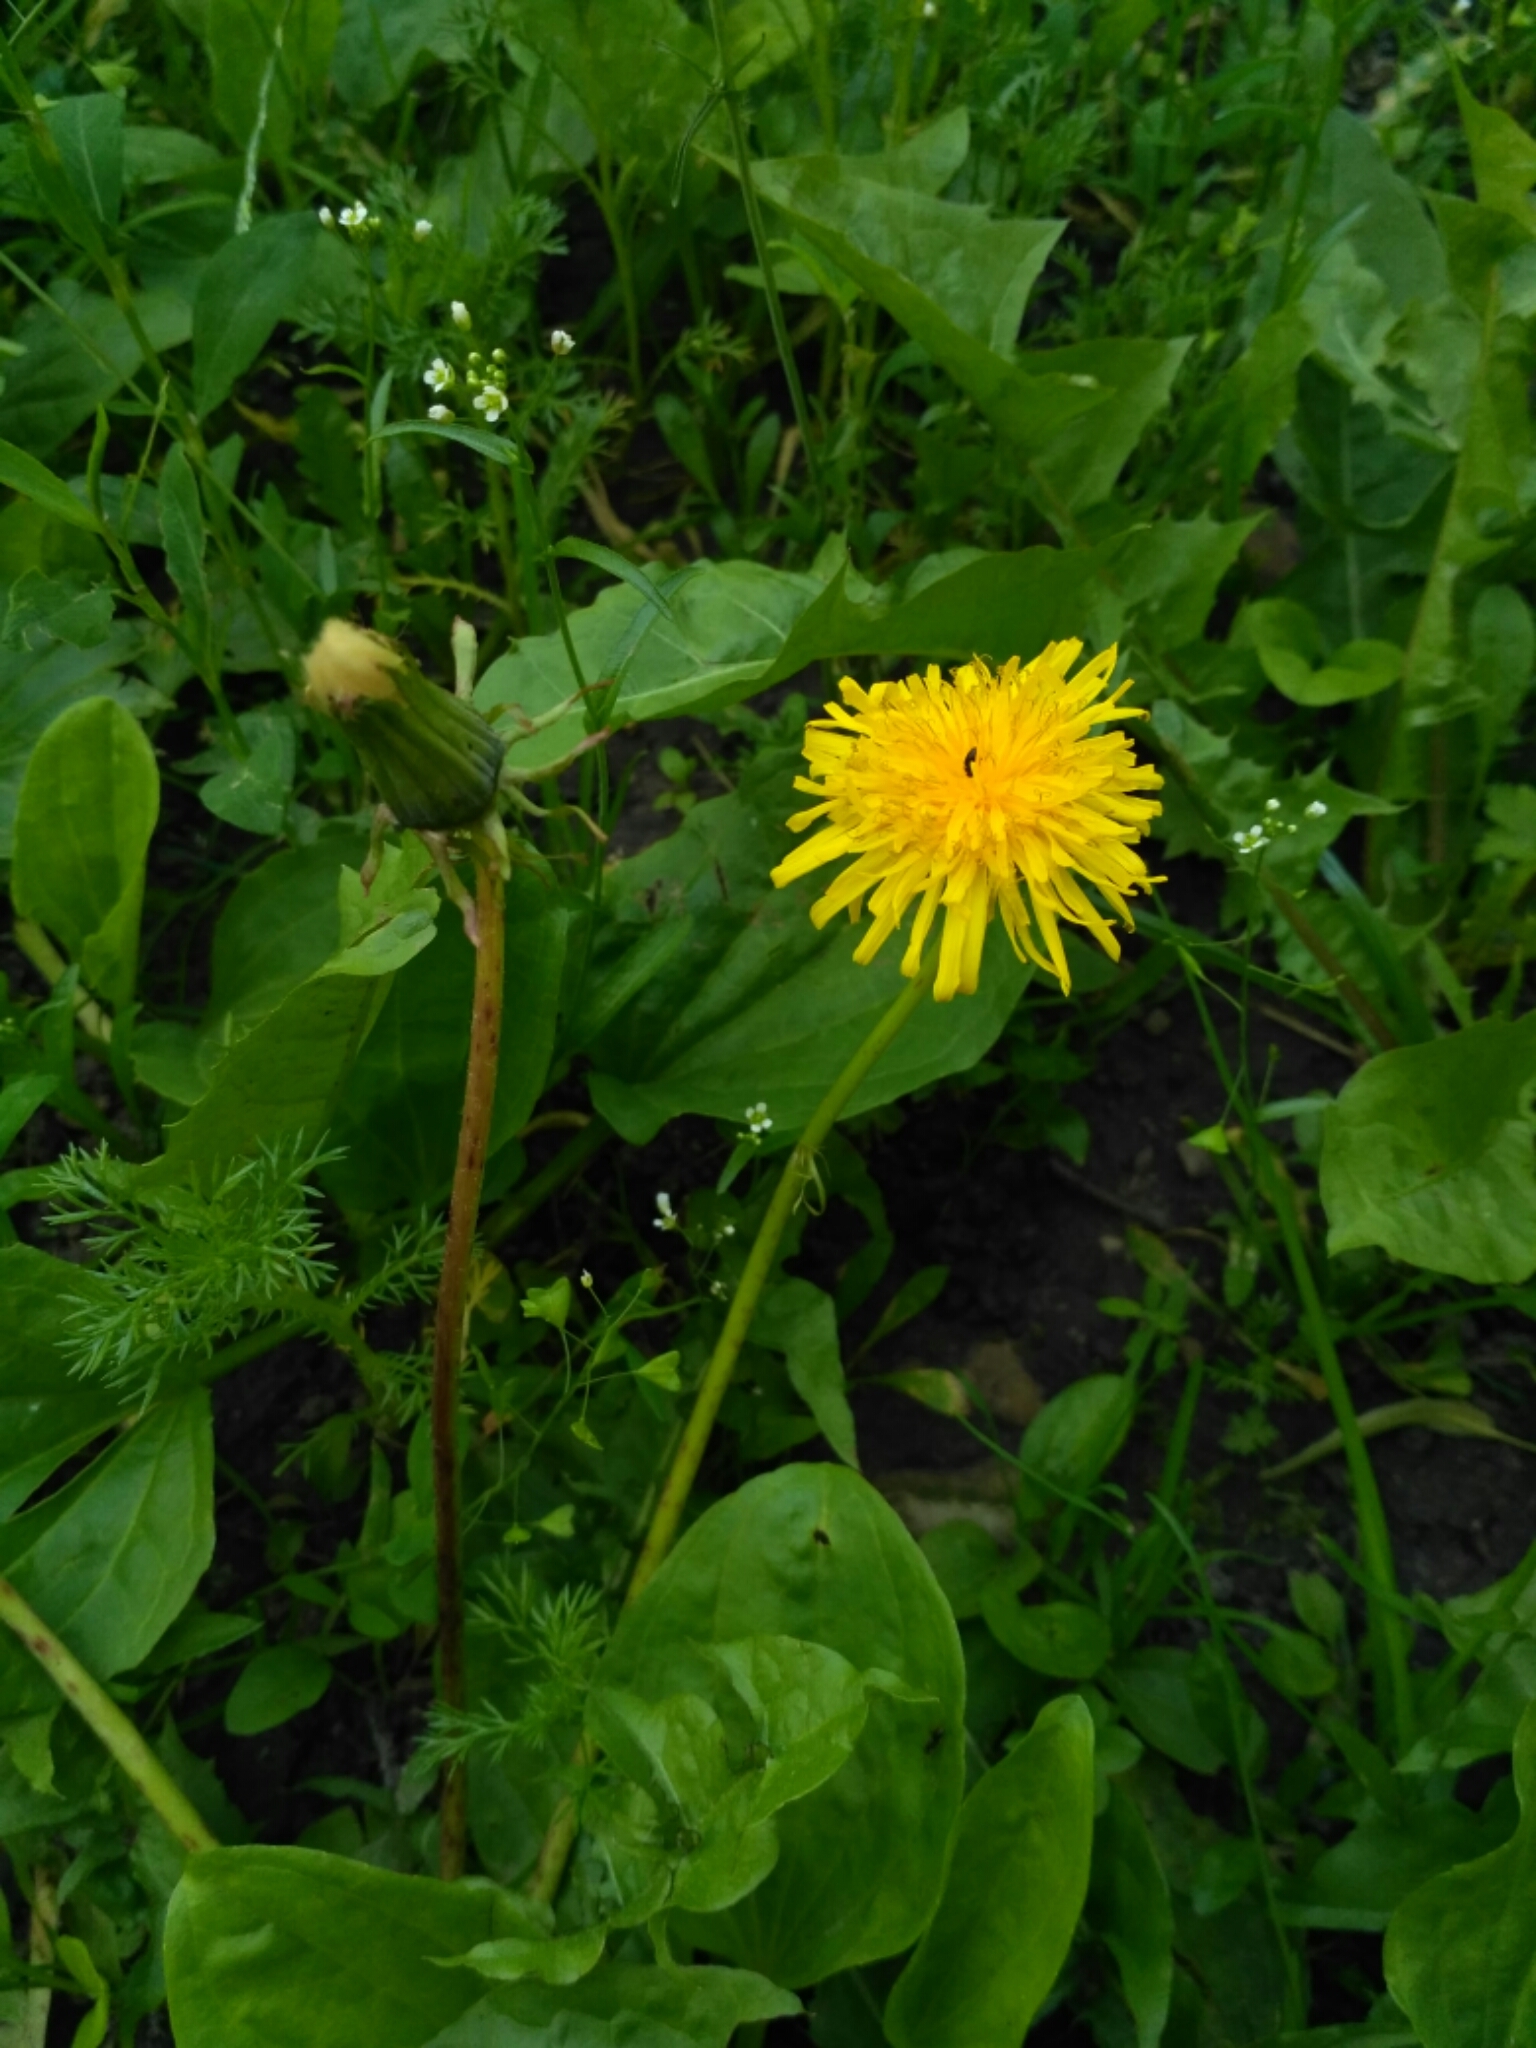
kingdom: Plantae
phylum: Tracheophyta
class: Magnoliopsida
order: Asterales
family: Asteraceae
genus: Taraxacum
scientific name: Taraxacum officinale
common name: Common dandelion
